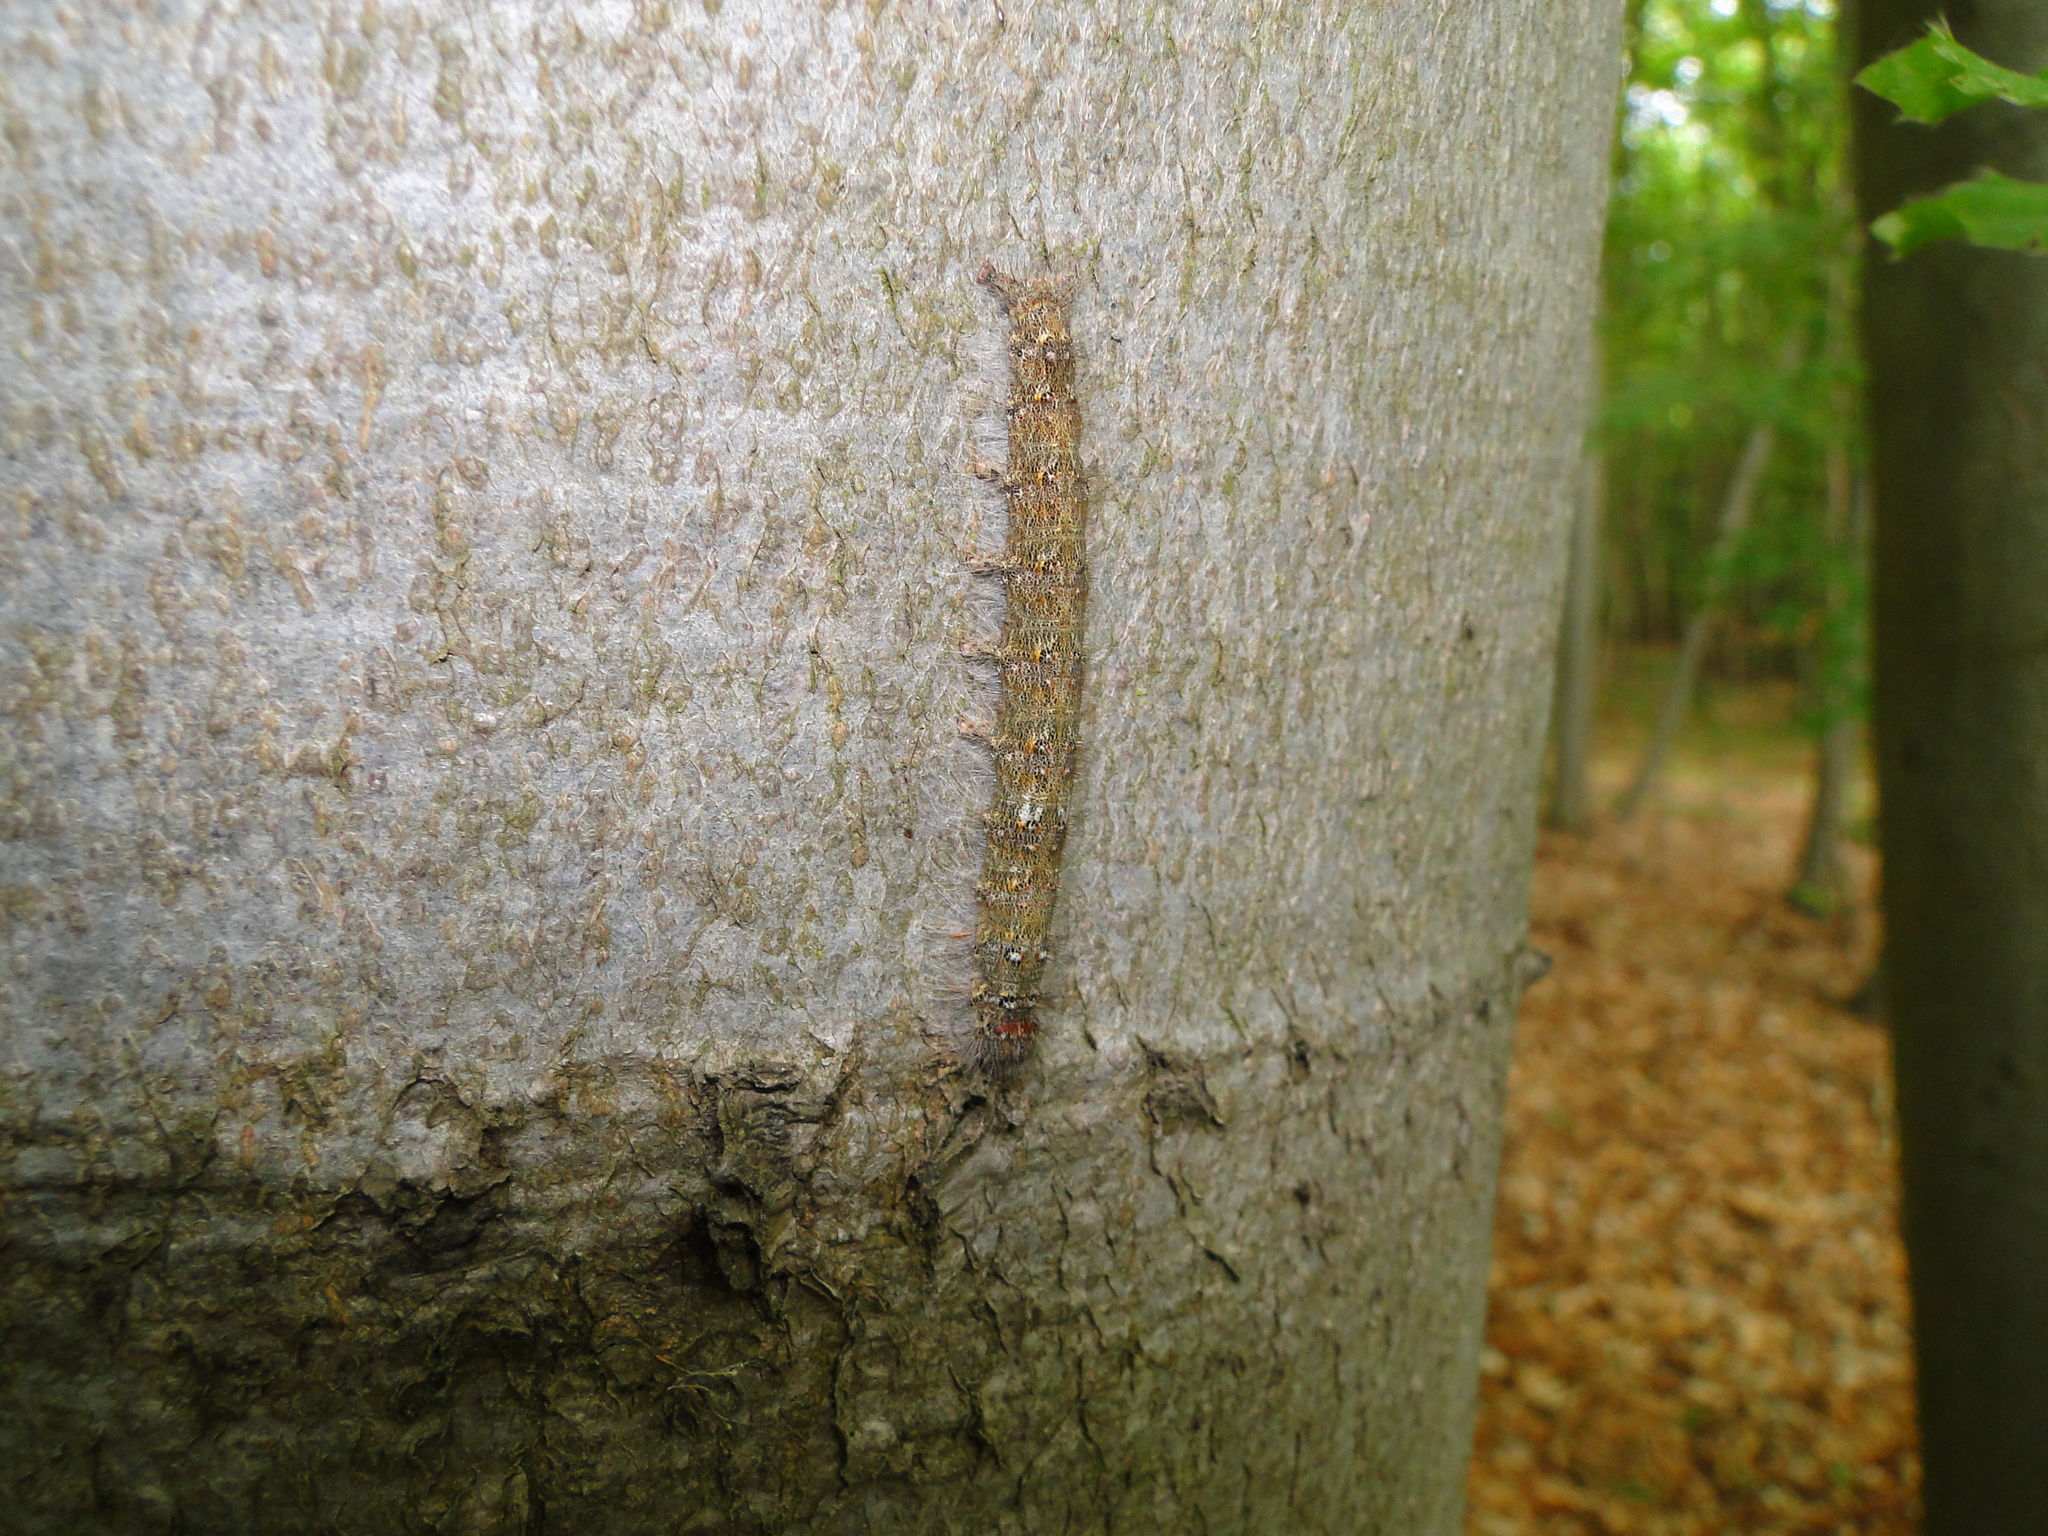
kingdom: Animalia
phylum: Arthropoda
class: Insecta
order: Lepidoptera
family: Lasiocampidae
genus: Poecilocampa
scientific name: Poecilocampa populi
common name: December moth
